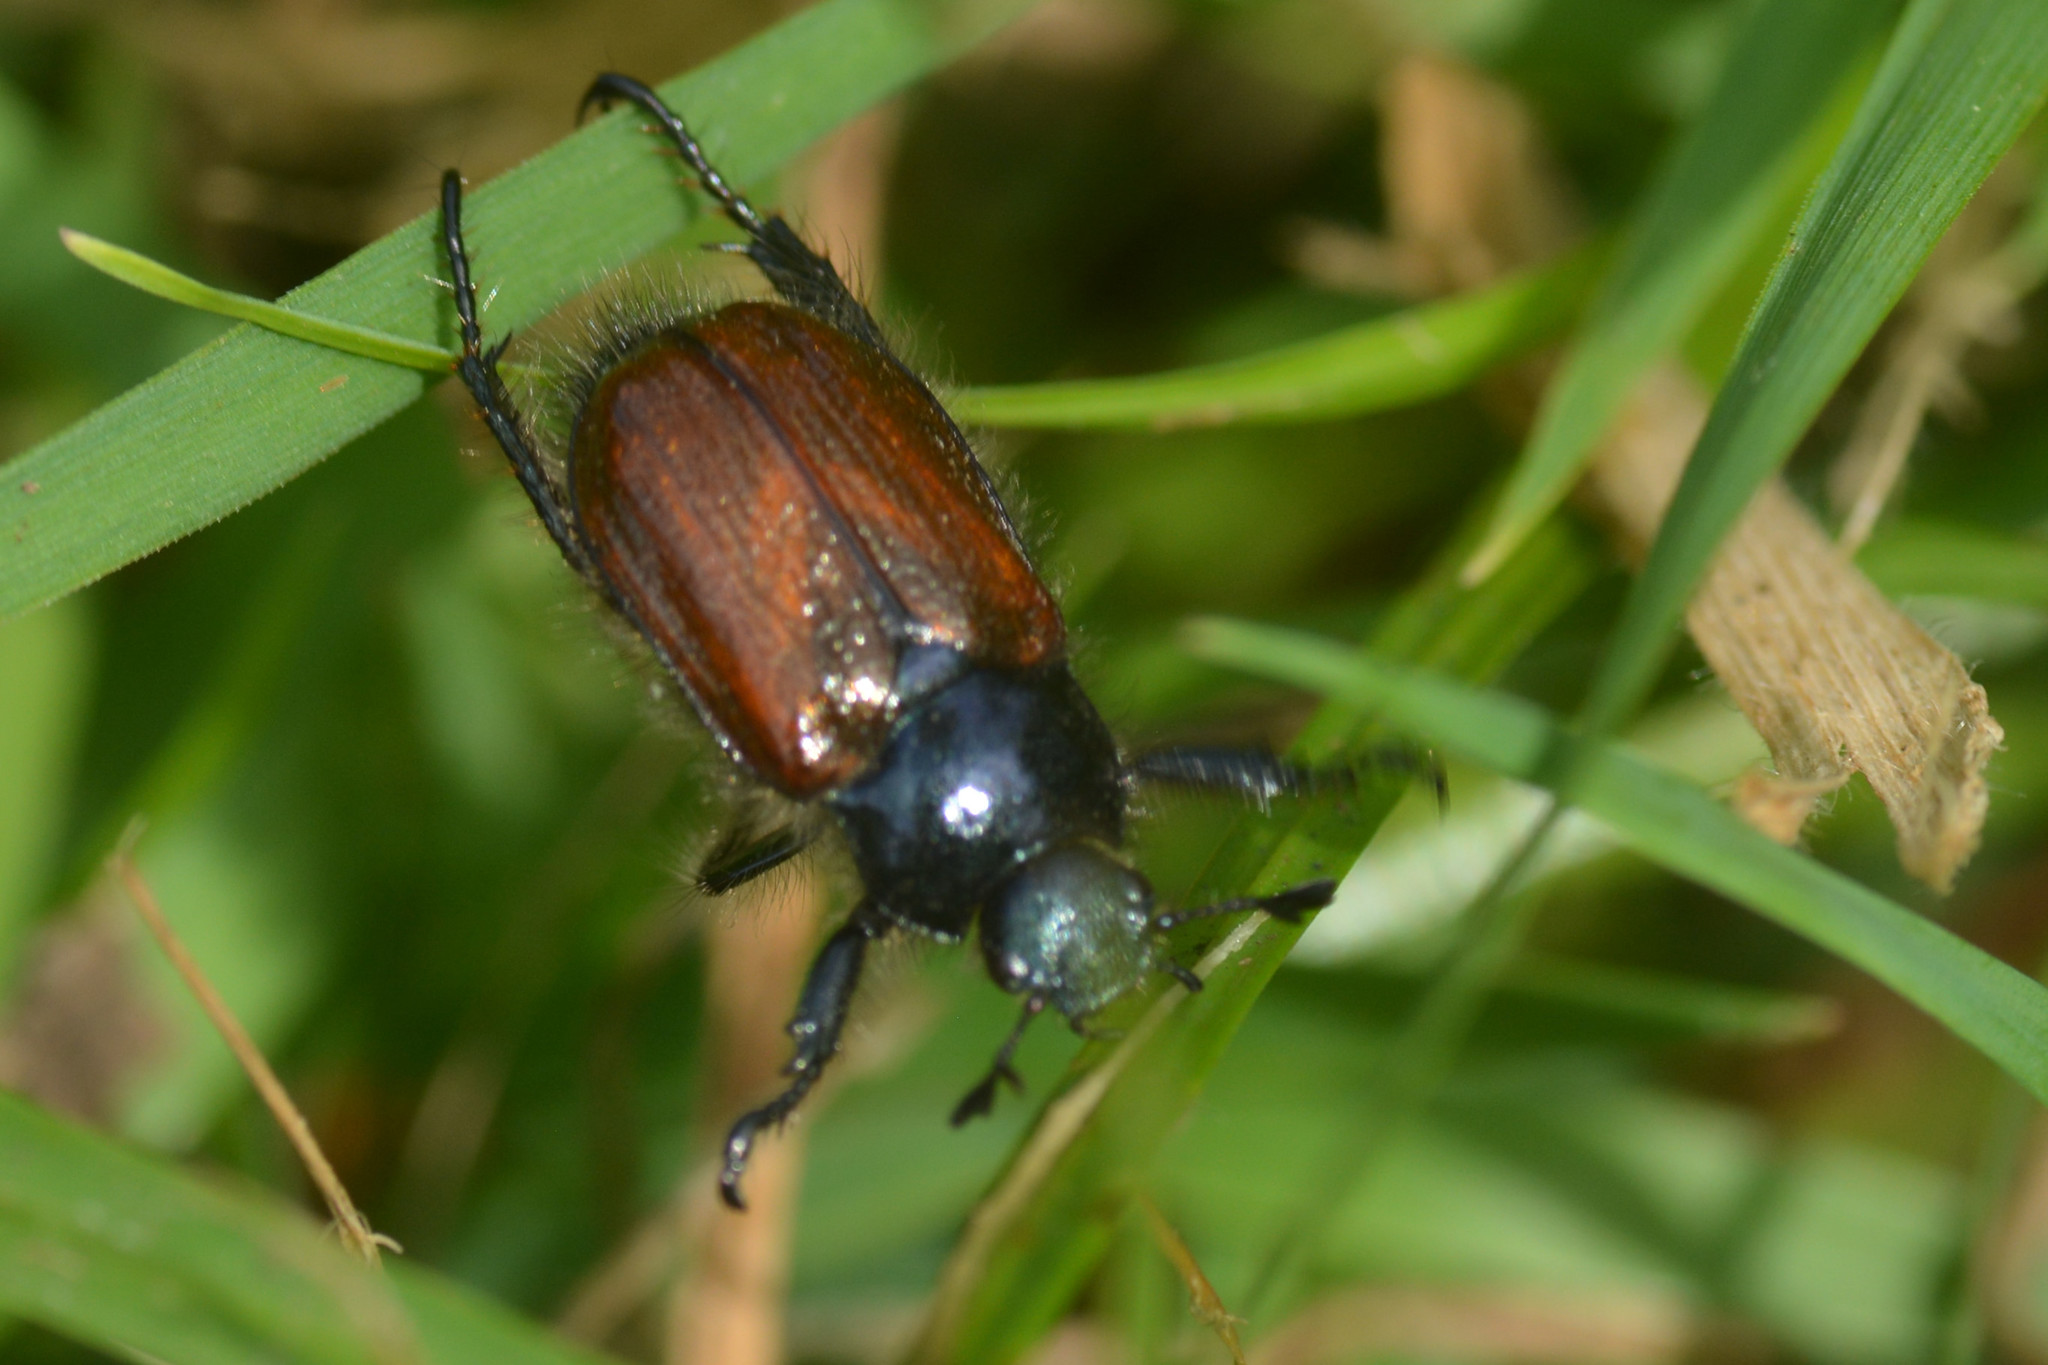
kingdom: Animalia
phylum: Arthropoda
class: Insecta
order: Coleoptera
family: Scarabaeidae
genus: Phyllopertha
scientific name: Phyllopertha horticola
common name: Garden chafer
